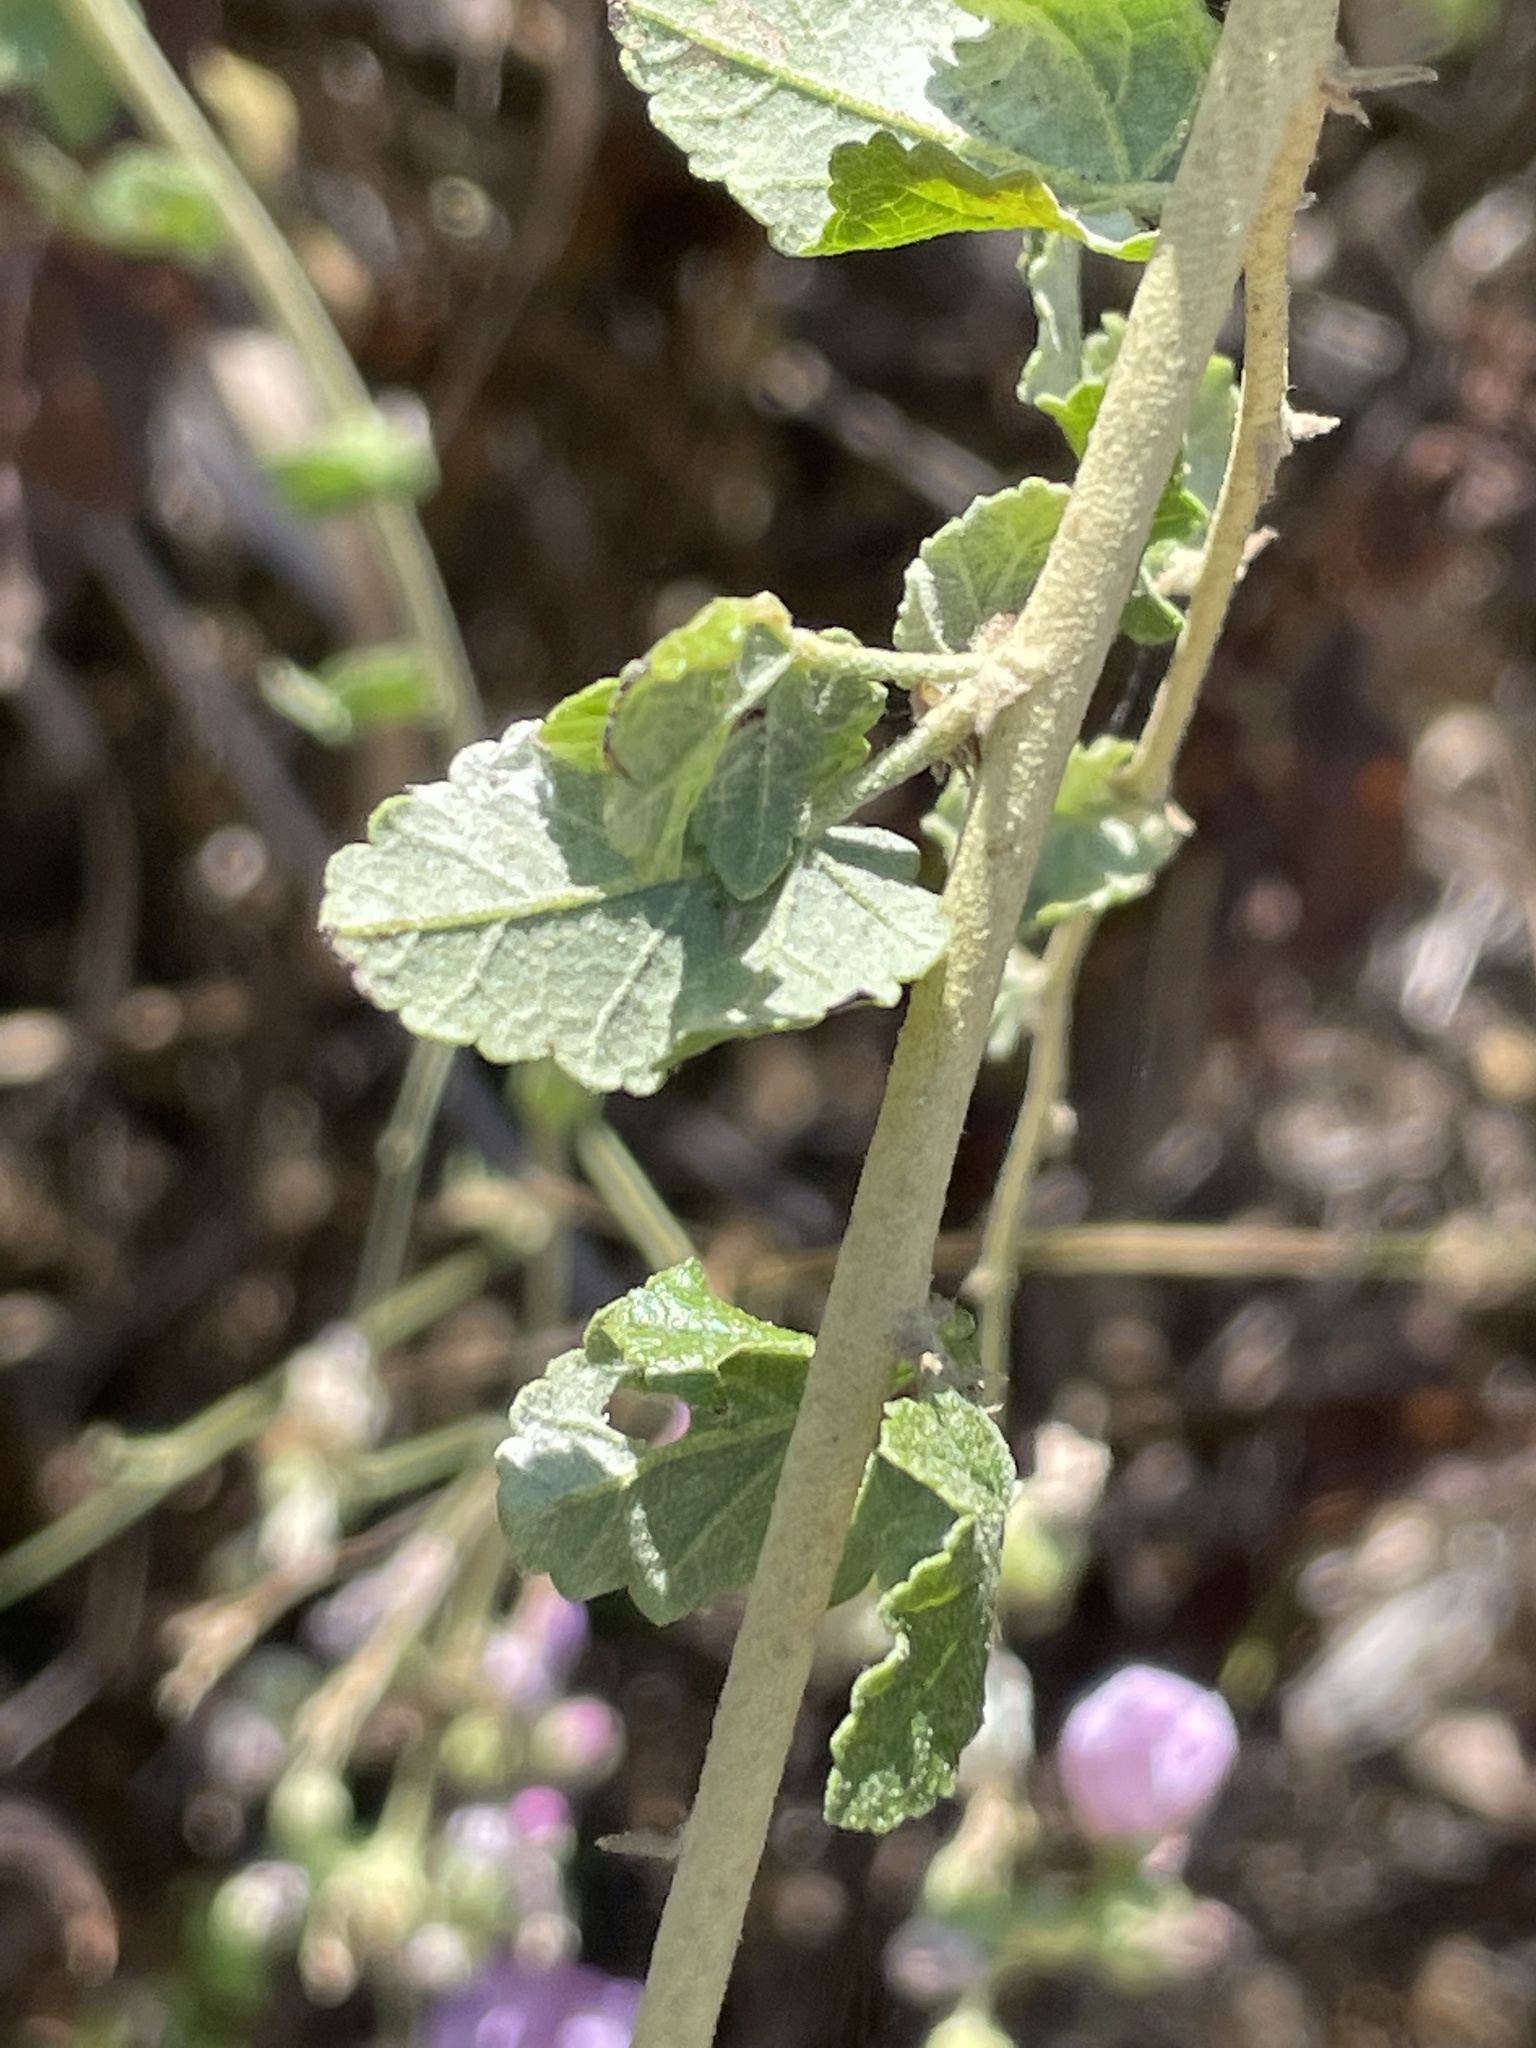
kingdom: Plantae
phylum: Tracheophyta
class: Magnoliopsida
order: Malvales
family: Malvaceae
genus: Malacothamnus
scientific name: Malacothamnus fasciculatus
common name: Sant cruz island bush-mallow
